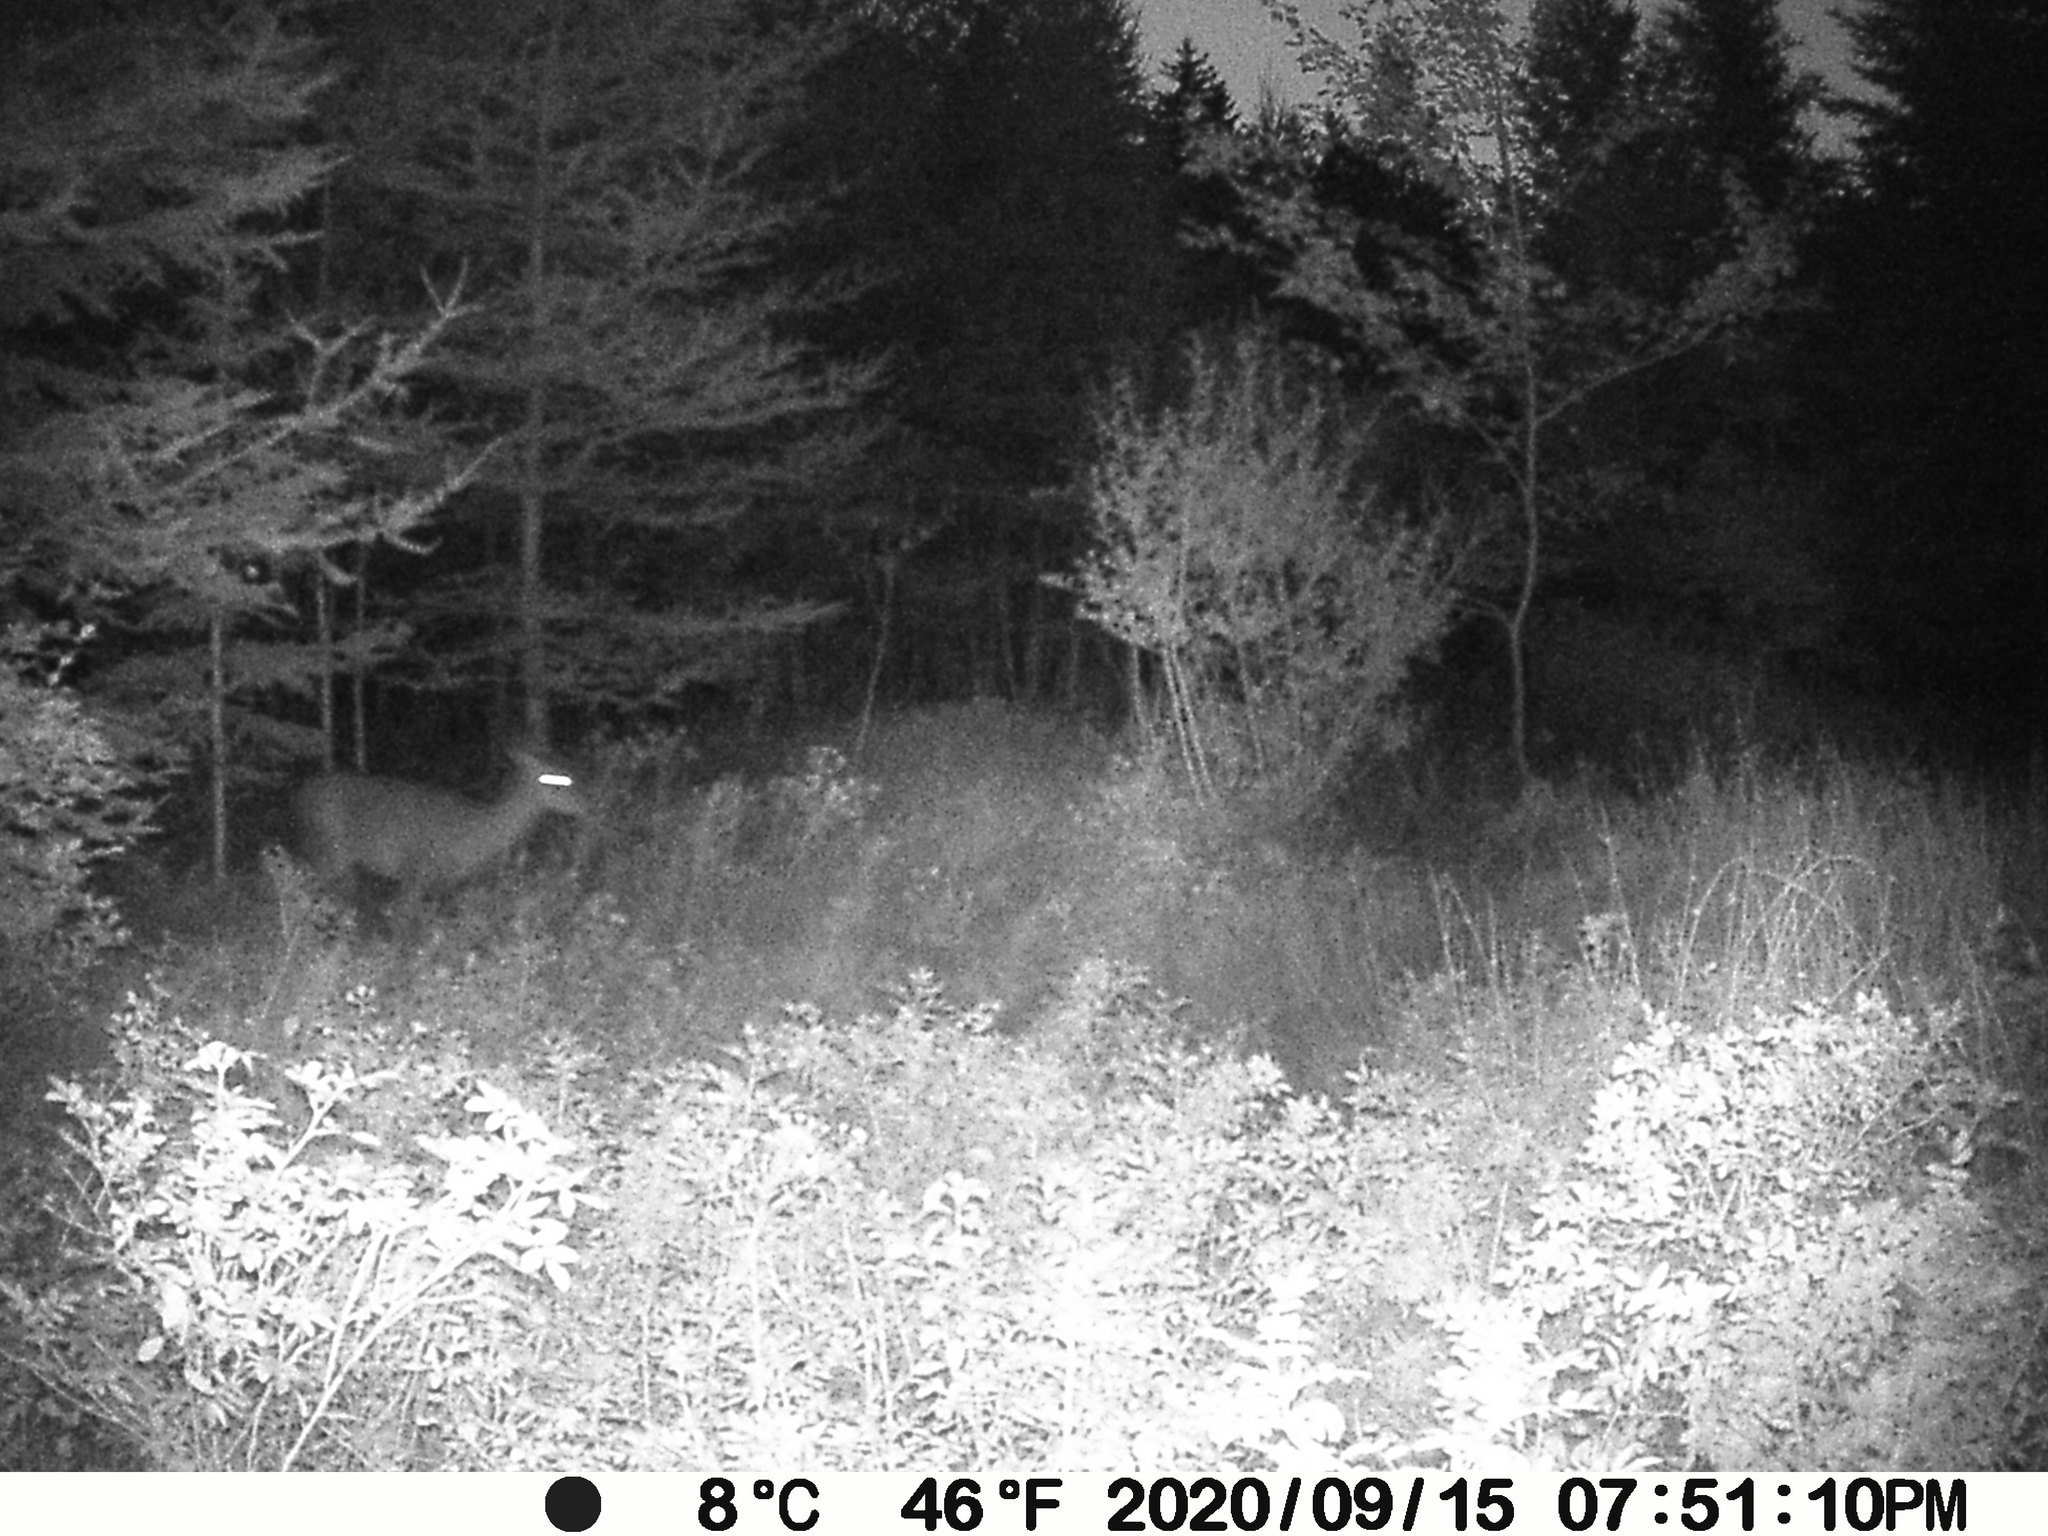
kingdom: Animalia
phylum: Chordata
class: Mammalia
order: Artiodactyla
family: Cervidae
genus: Odocoileus
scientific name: Odocoileus virginianus
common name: White-tailed deer
